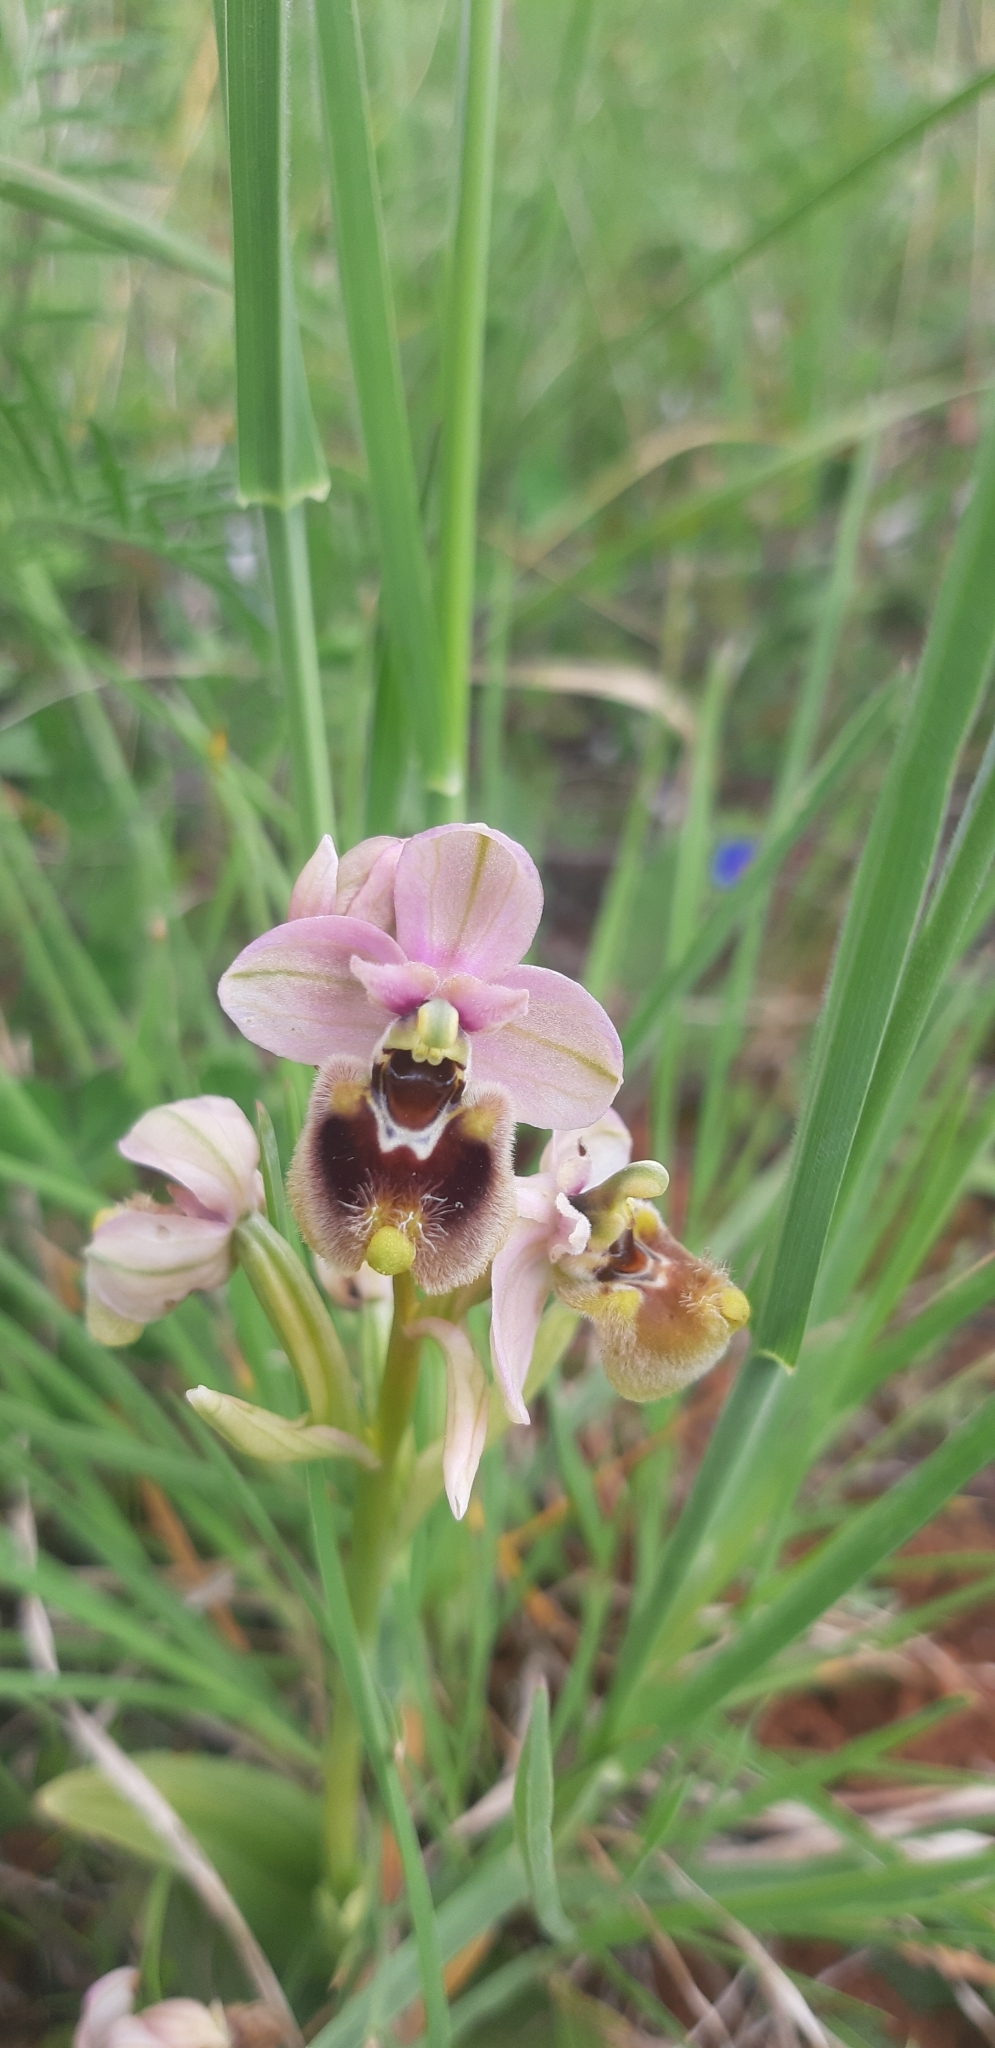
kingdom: Plantae
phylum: Tracheophyta
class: Liliopsida
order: Asparagales
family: Orchidaceae
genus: Ophrys
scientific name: Ophrys tenthredinifera
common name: Sawfly orchid
